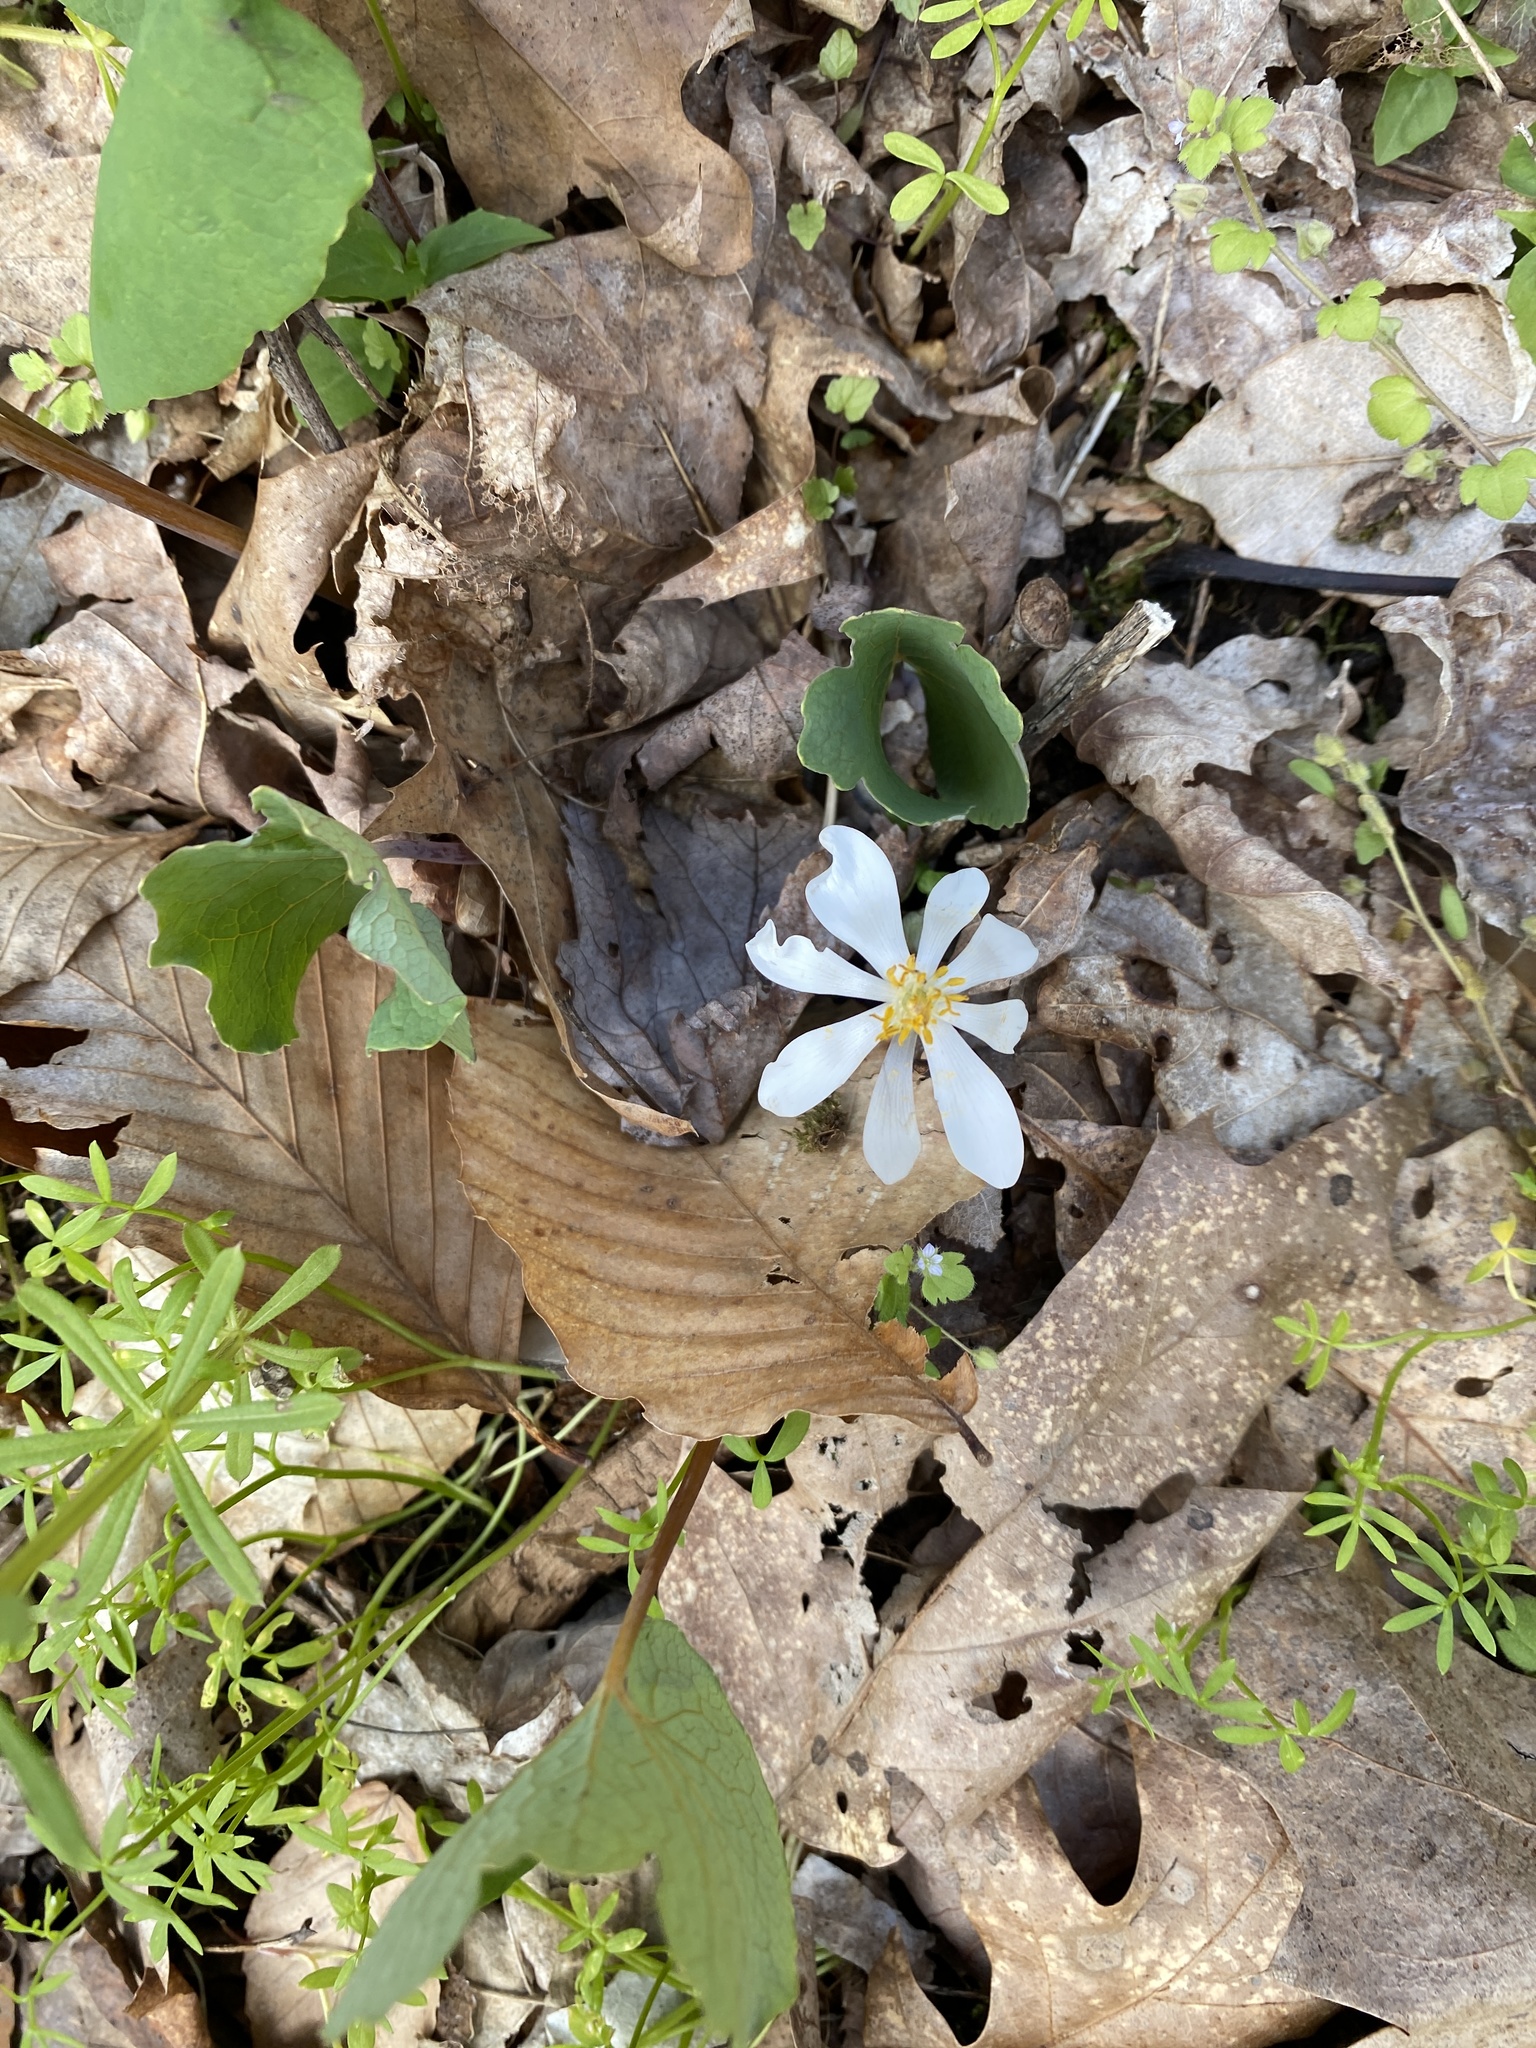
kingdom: Plantae
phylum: Tracheophyta
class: Magnoliopsida
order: Ranunculales
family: Papaveraceae
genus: Sanguinaria
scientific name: Sanguinaria canadensis
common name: Bloodroot
